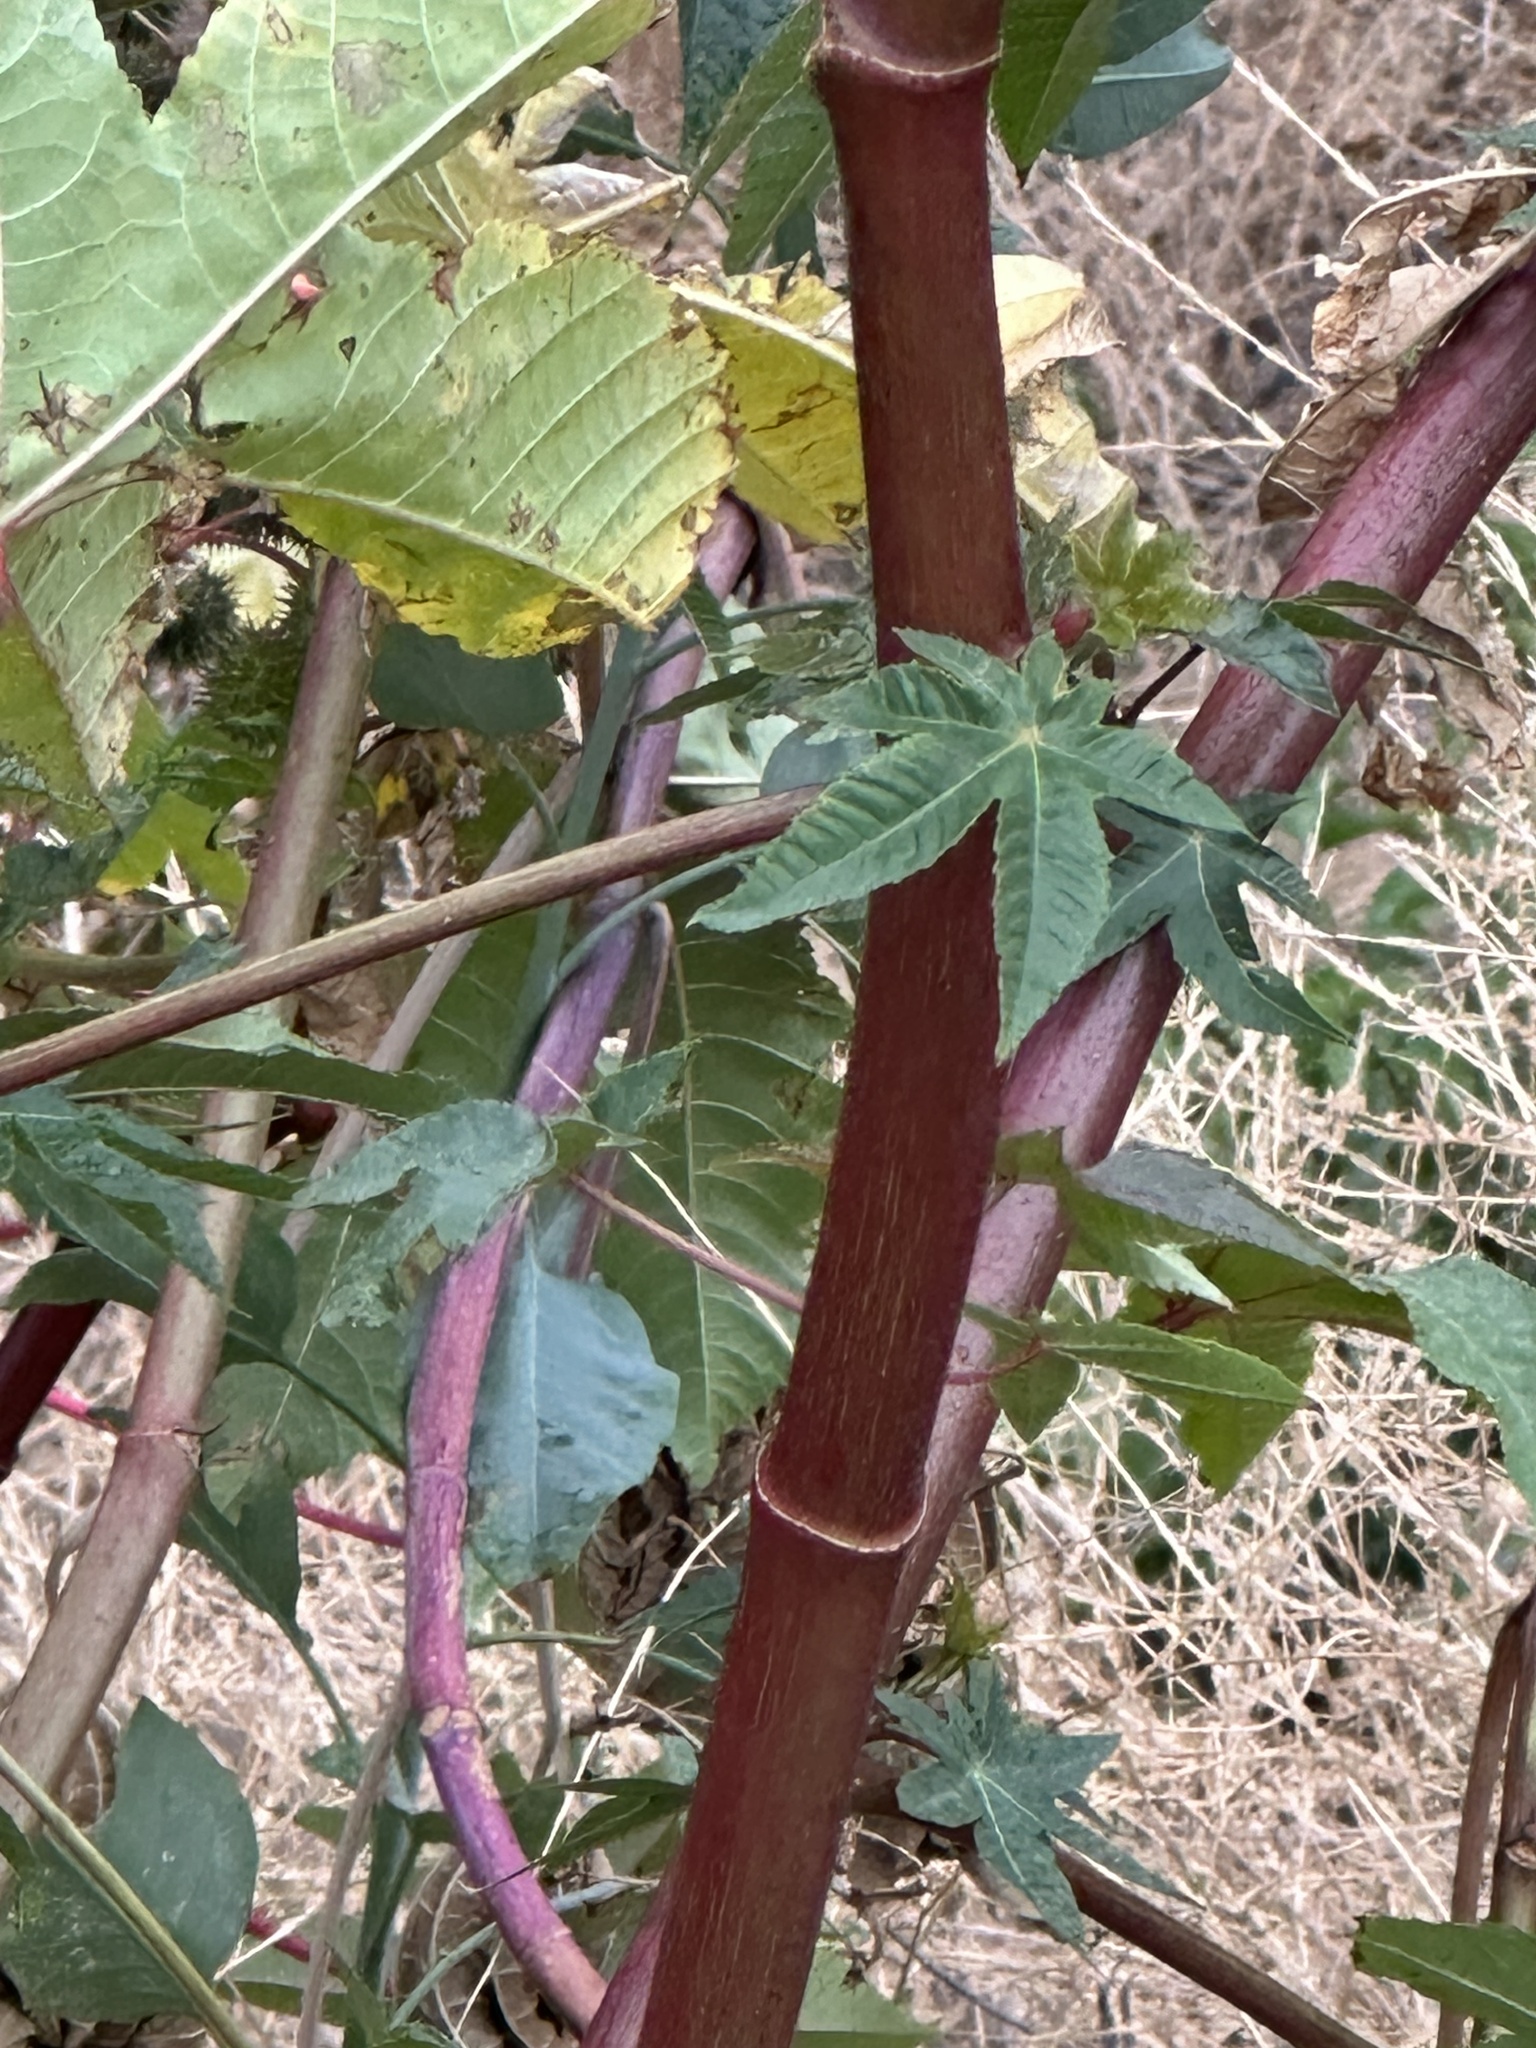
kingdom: Plantae
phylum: Tracheophyta
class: Magnoliopsida
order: Malpighiales
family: Euphorbiaceae
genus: Ricinus
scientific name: Ricinus communis
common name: Castor-oil-plant
